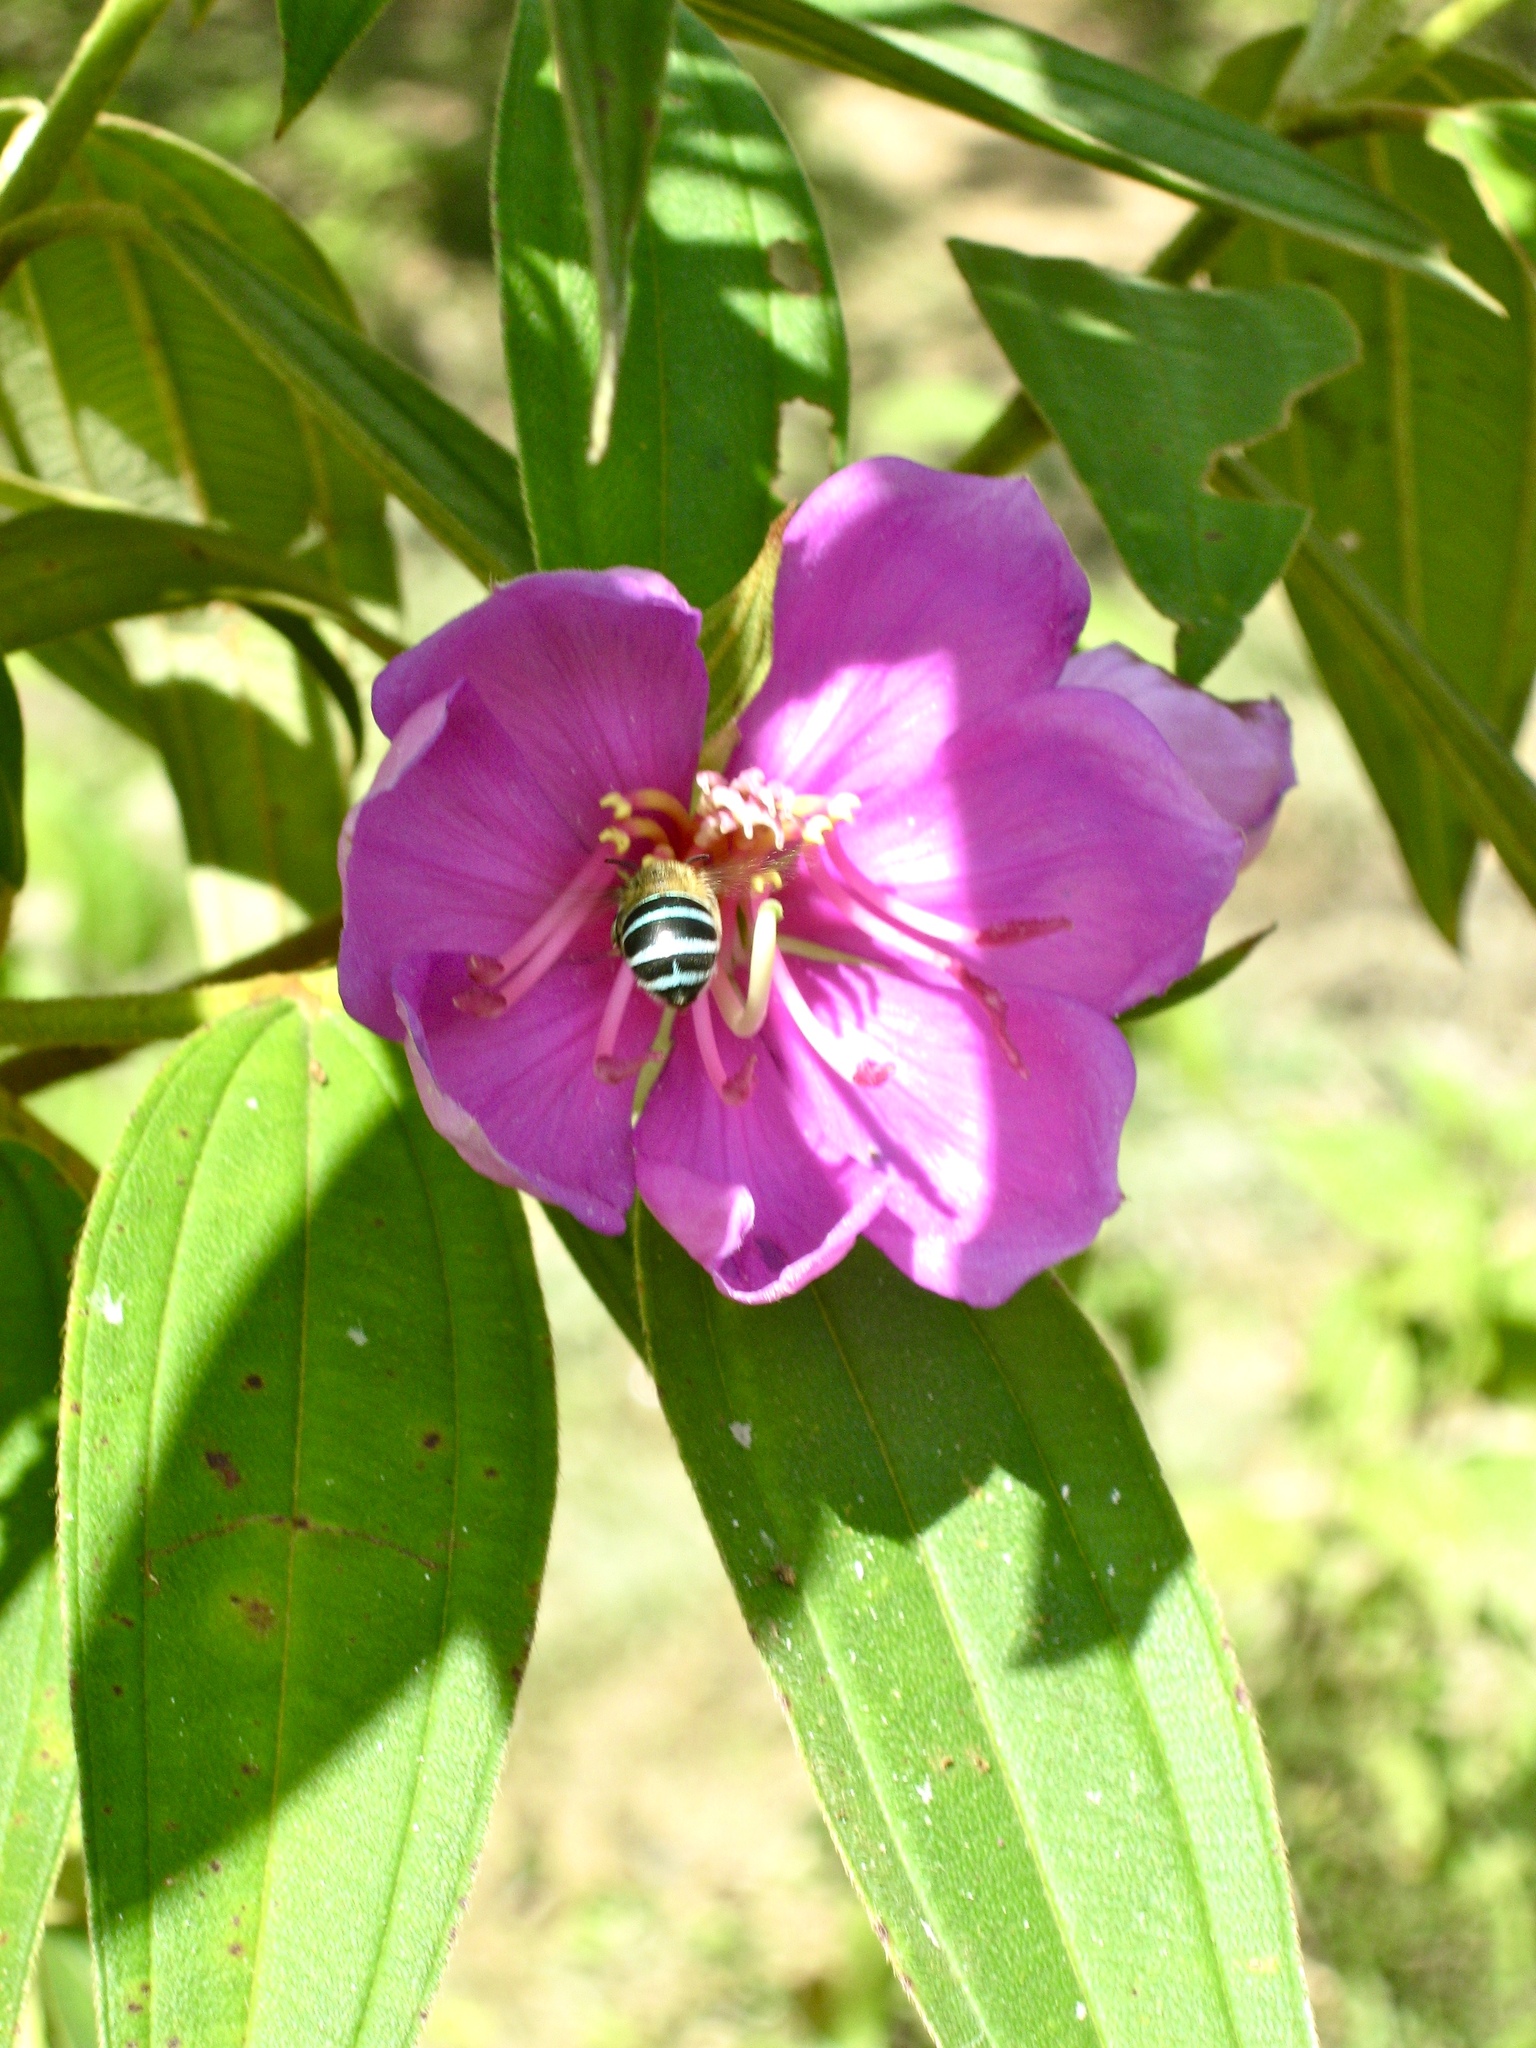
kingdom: Plantae
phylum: Tracheophyta
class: Magnoliopsida
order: Myrtales
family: Melastomataceae
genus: Melastoma
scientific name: Melastoma malabathricum
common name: Indian-rhododendron
